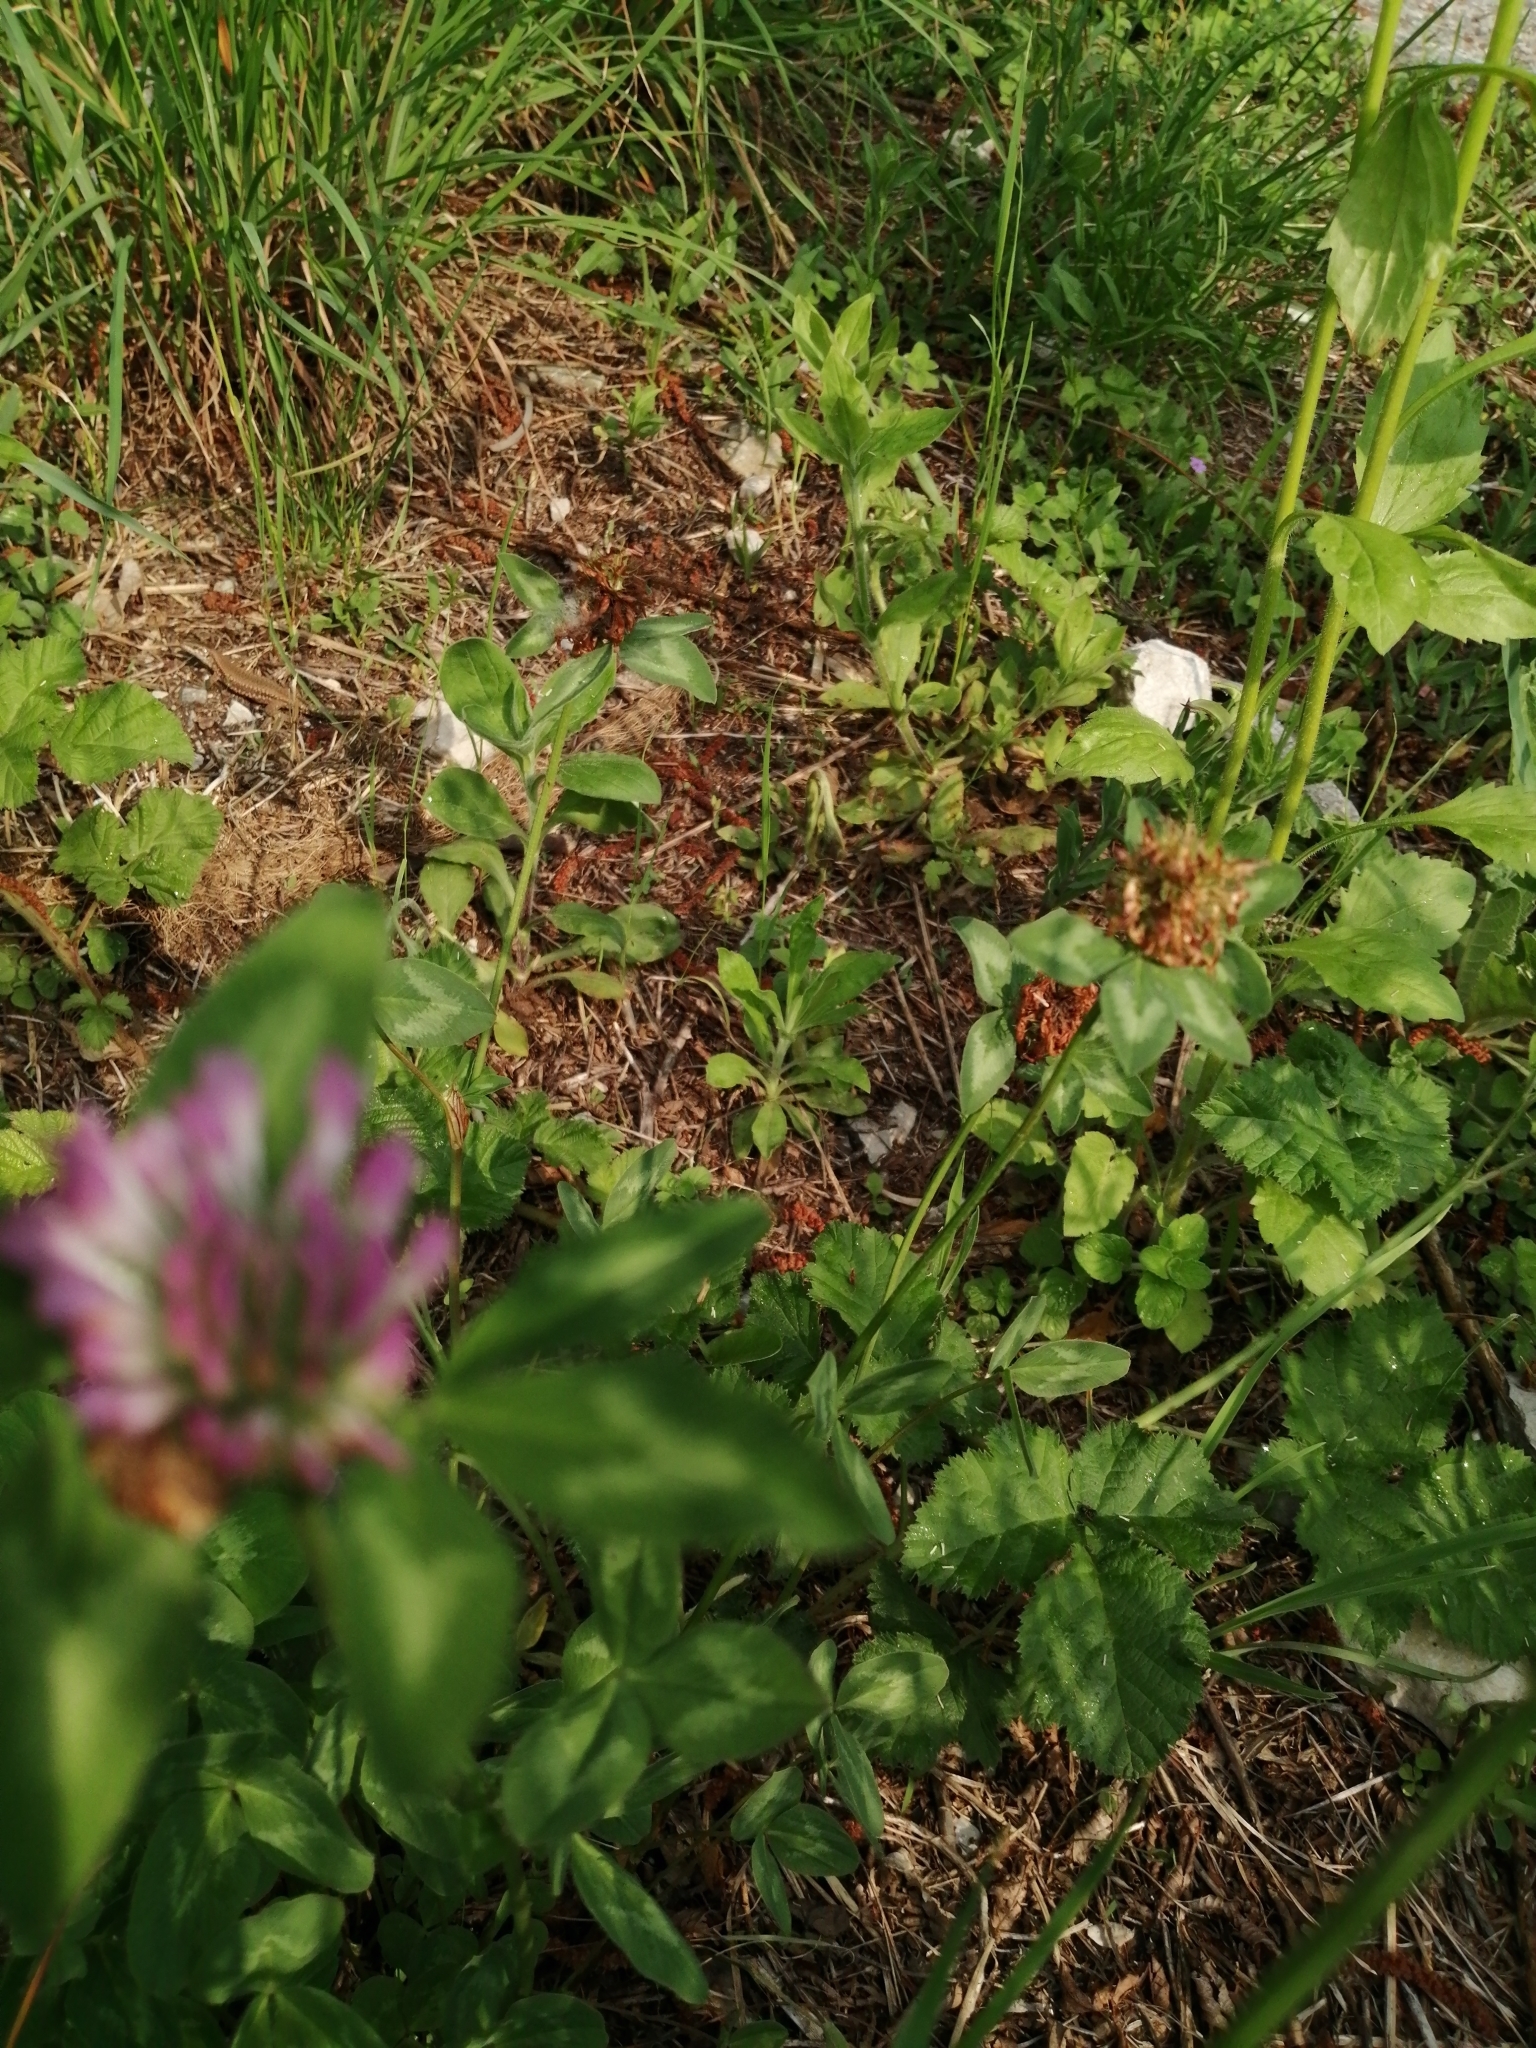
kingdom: Plantae
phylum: Tracheophyta
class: Magnoliopsida
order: Fabales
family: Fabaceae
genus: Trifolium
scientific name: Trifolium pratense
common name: Red clover
